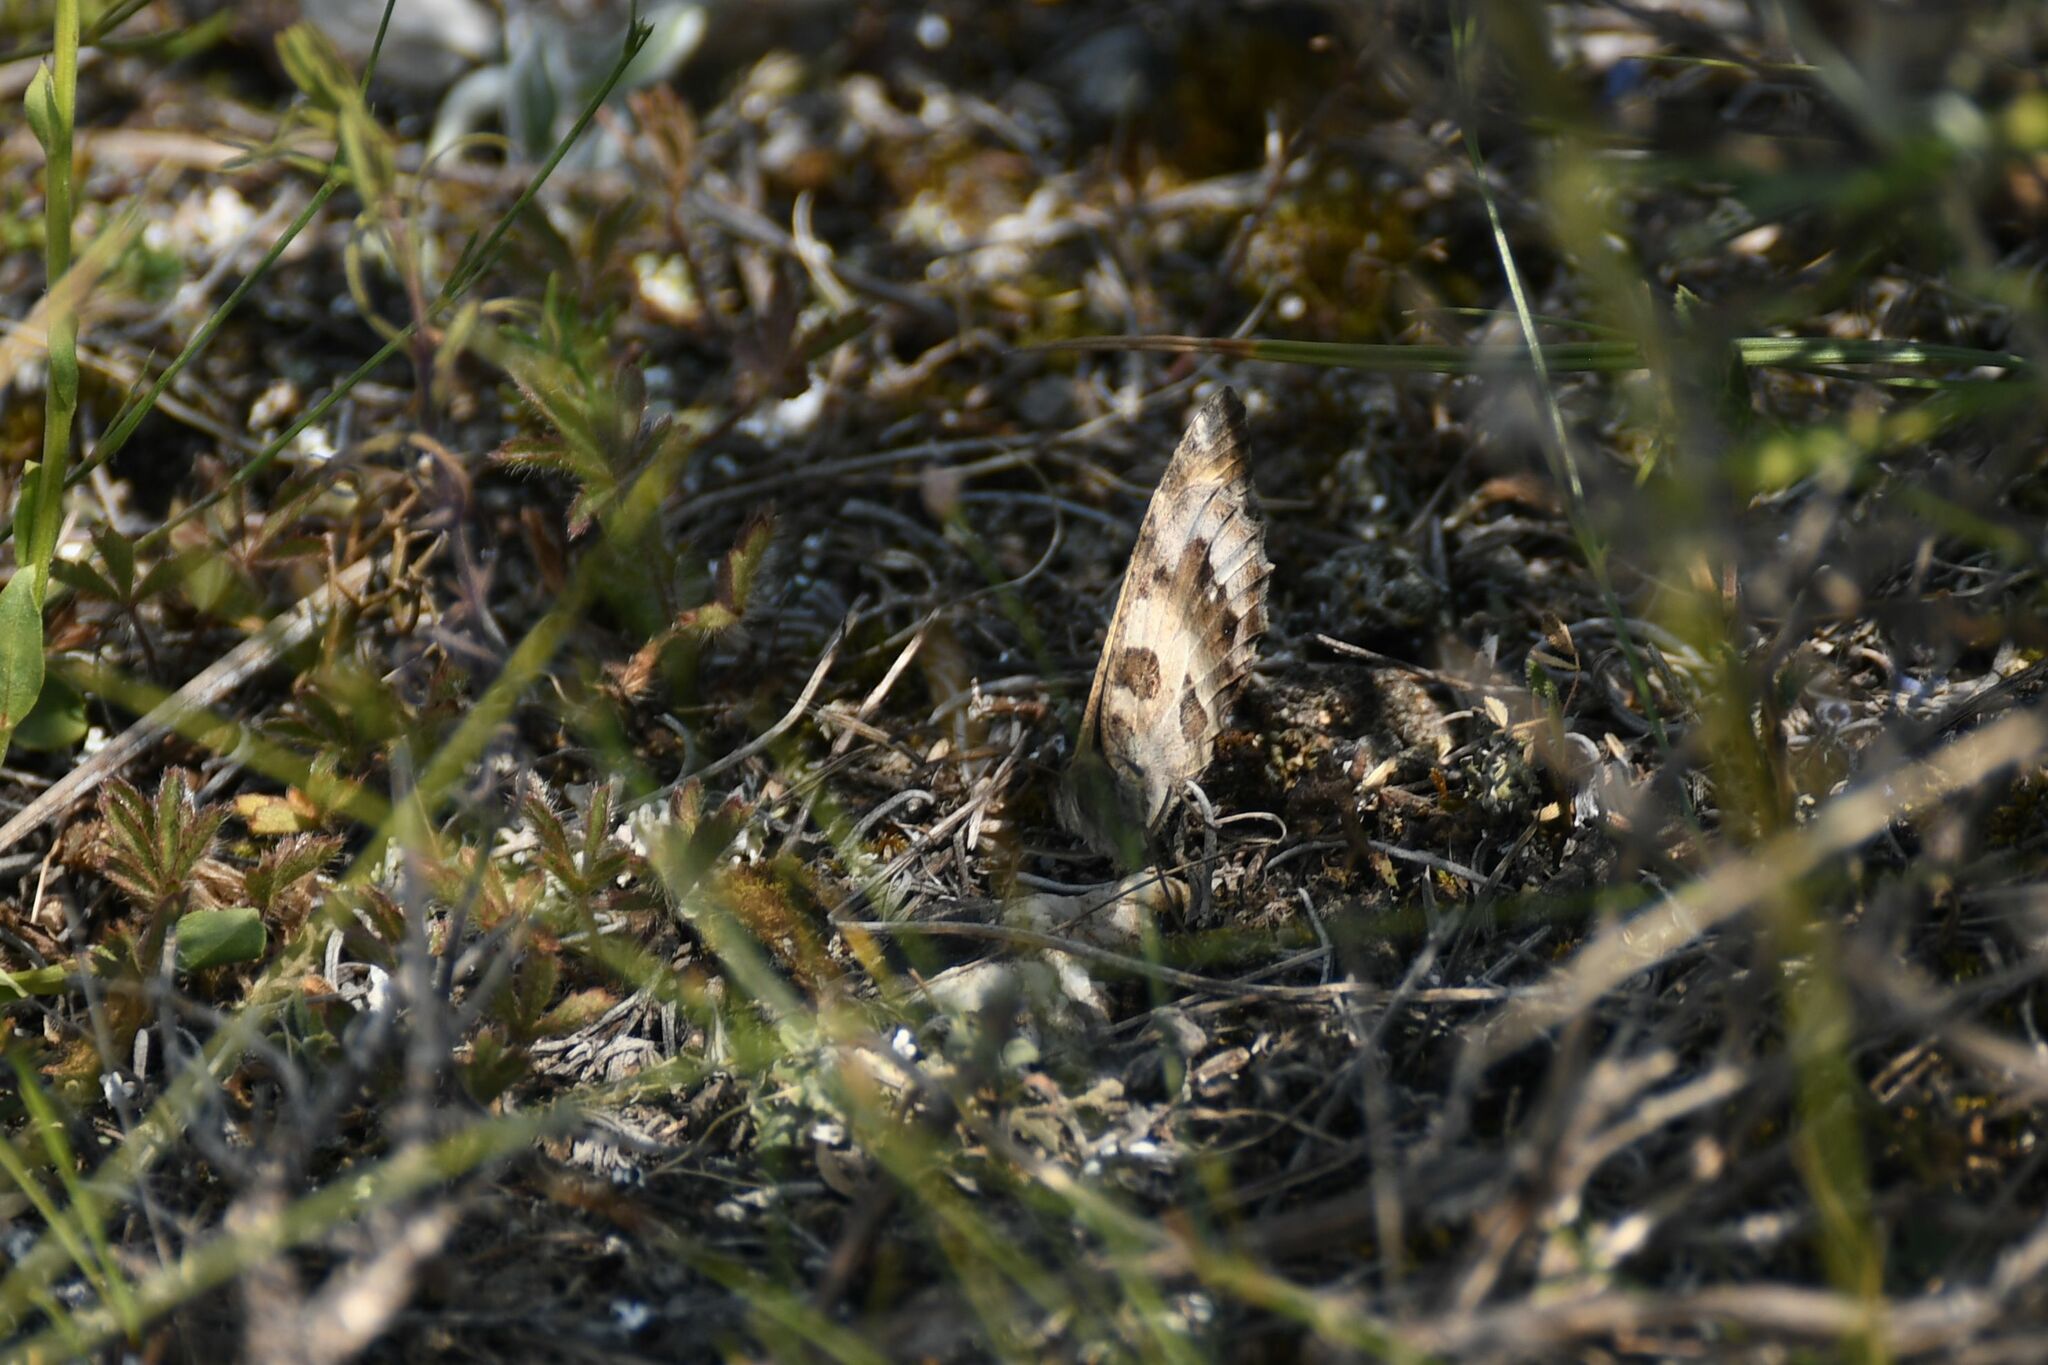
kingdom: Animalia
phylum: Arthropoda
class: Insecta
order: Lepidoptera
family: Nymphalidae
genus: Satyrus
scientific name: Satyrus briseis
